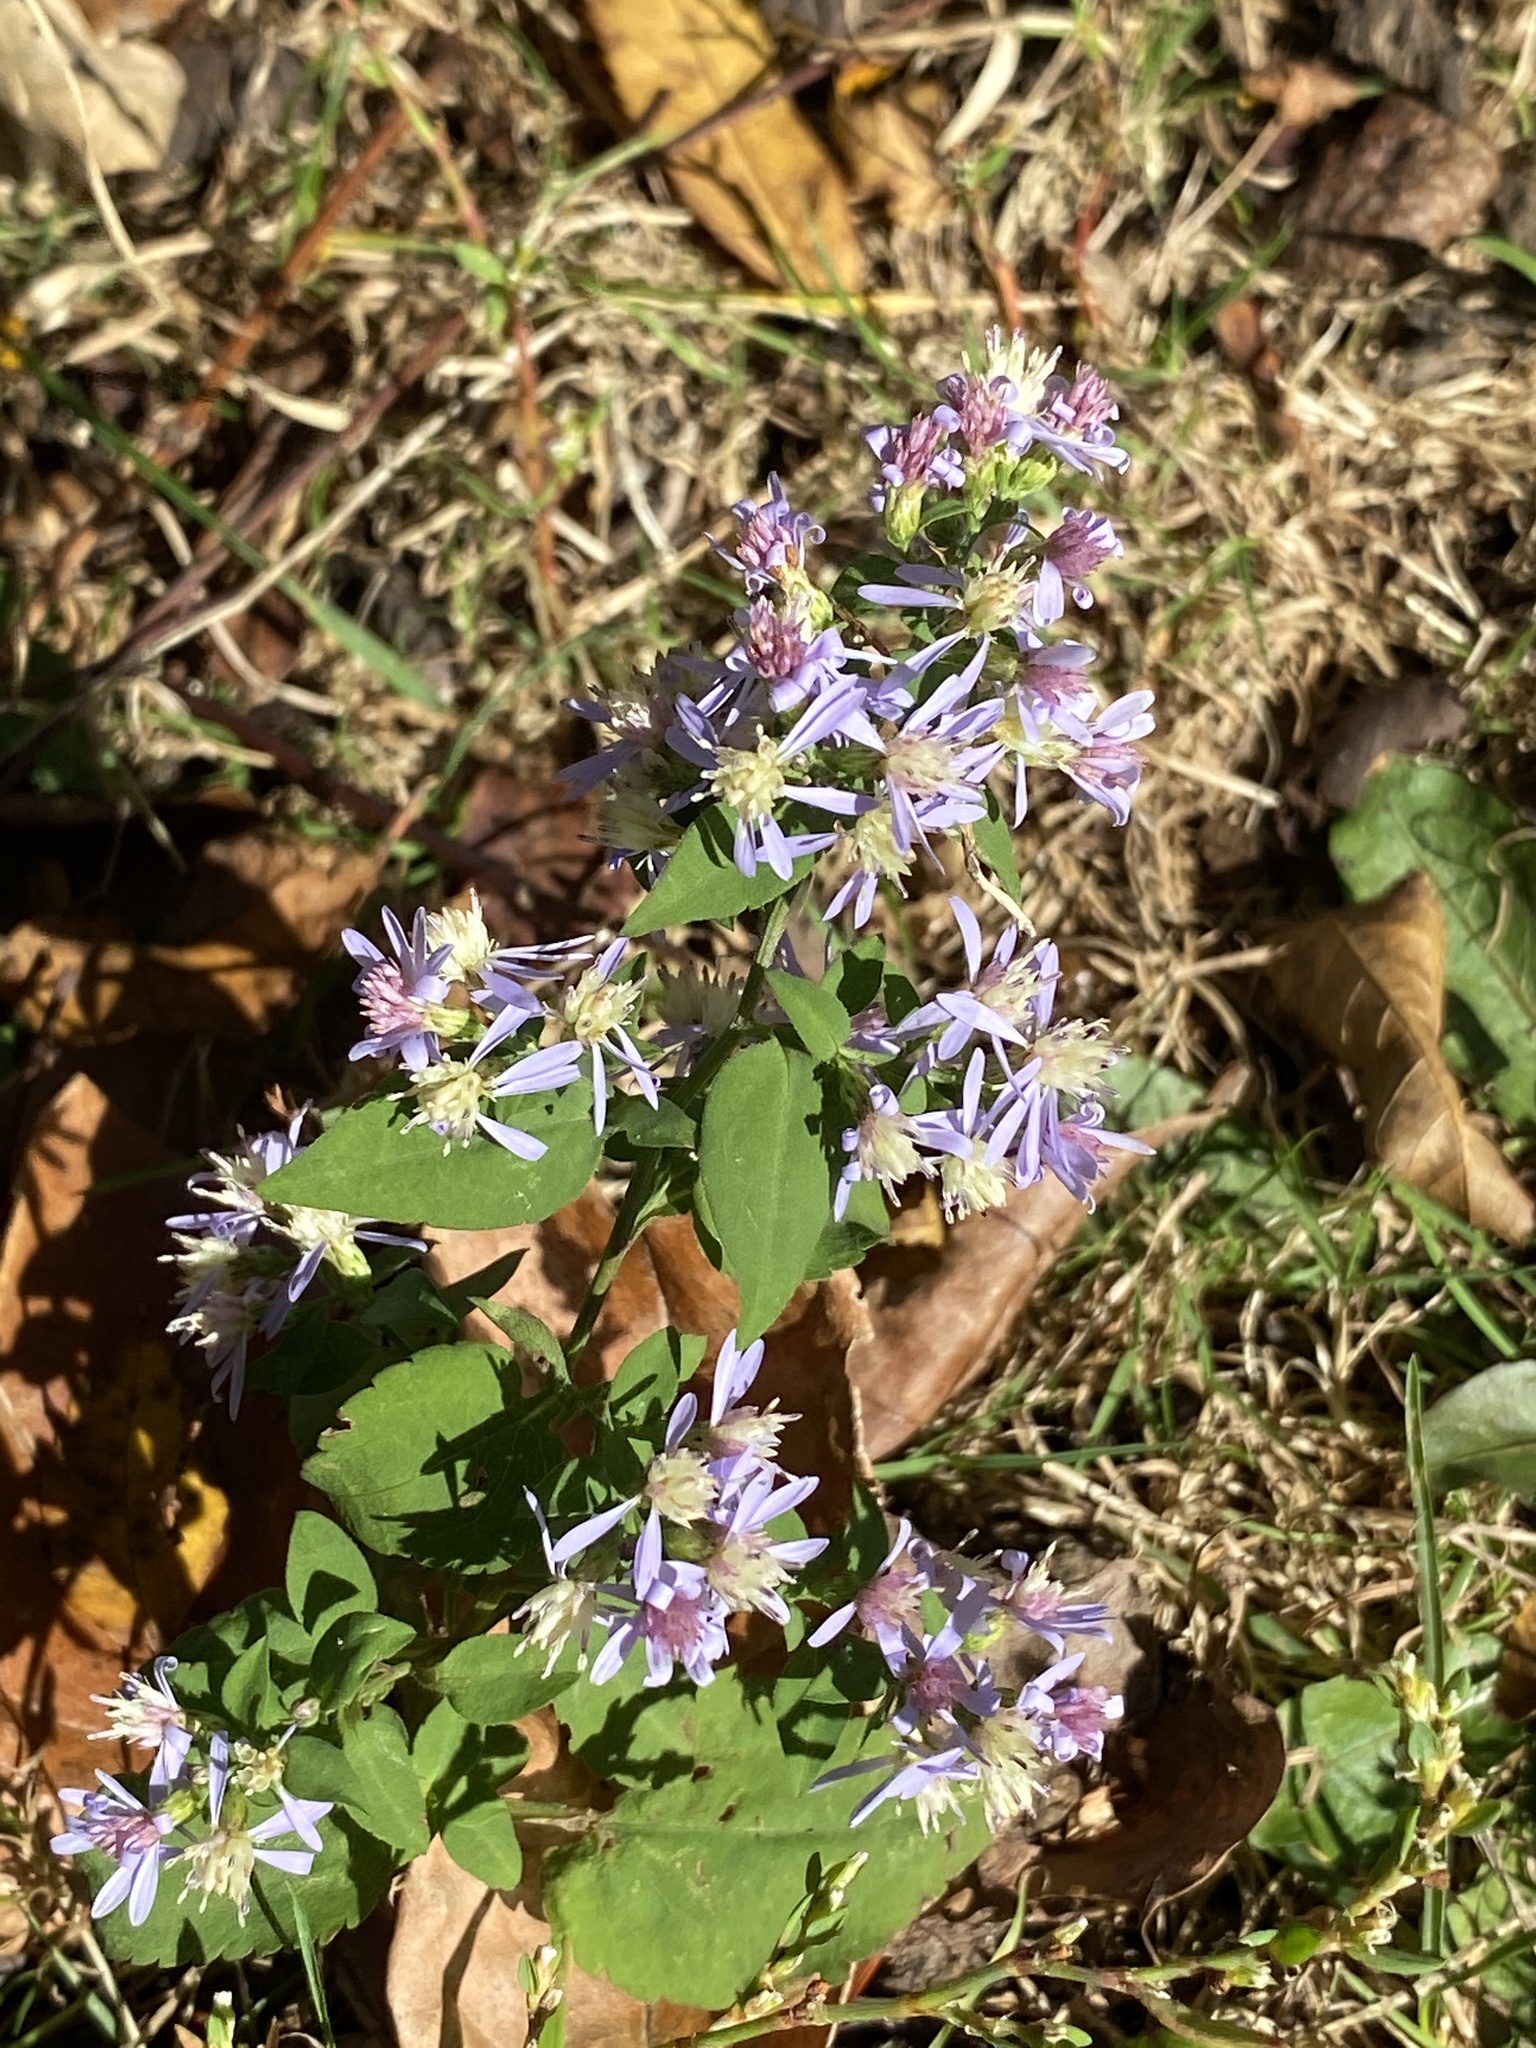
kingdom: Plantae
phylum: Tracheophyta
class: Magnoliopsida
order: Asterales
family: Asteraceae
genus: Symphyotrichum
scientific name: Symphyotrichum cordifolium
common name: Beeweed
